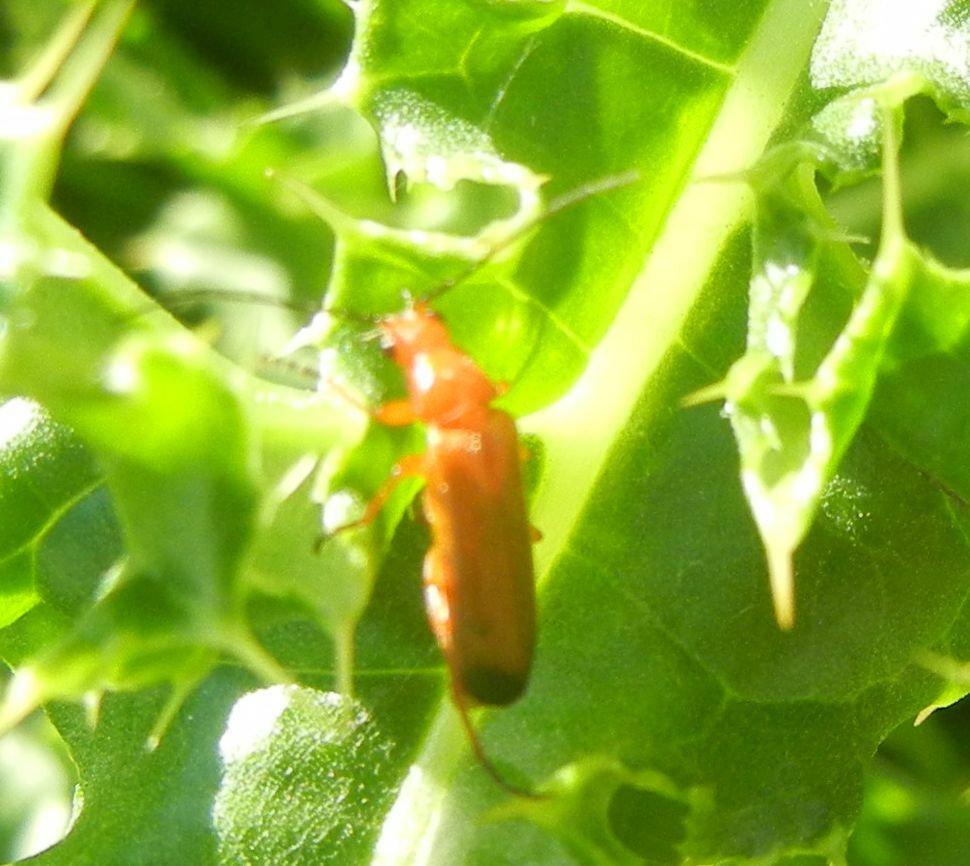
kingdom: Animalia
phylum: Arthropoda
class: Insecta
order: Coleoptera
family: Cantharidae
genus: Rhagonycha
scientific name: Rhagonycha fulva
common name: Common red soldier beetle
